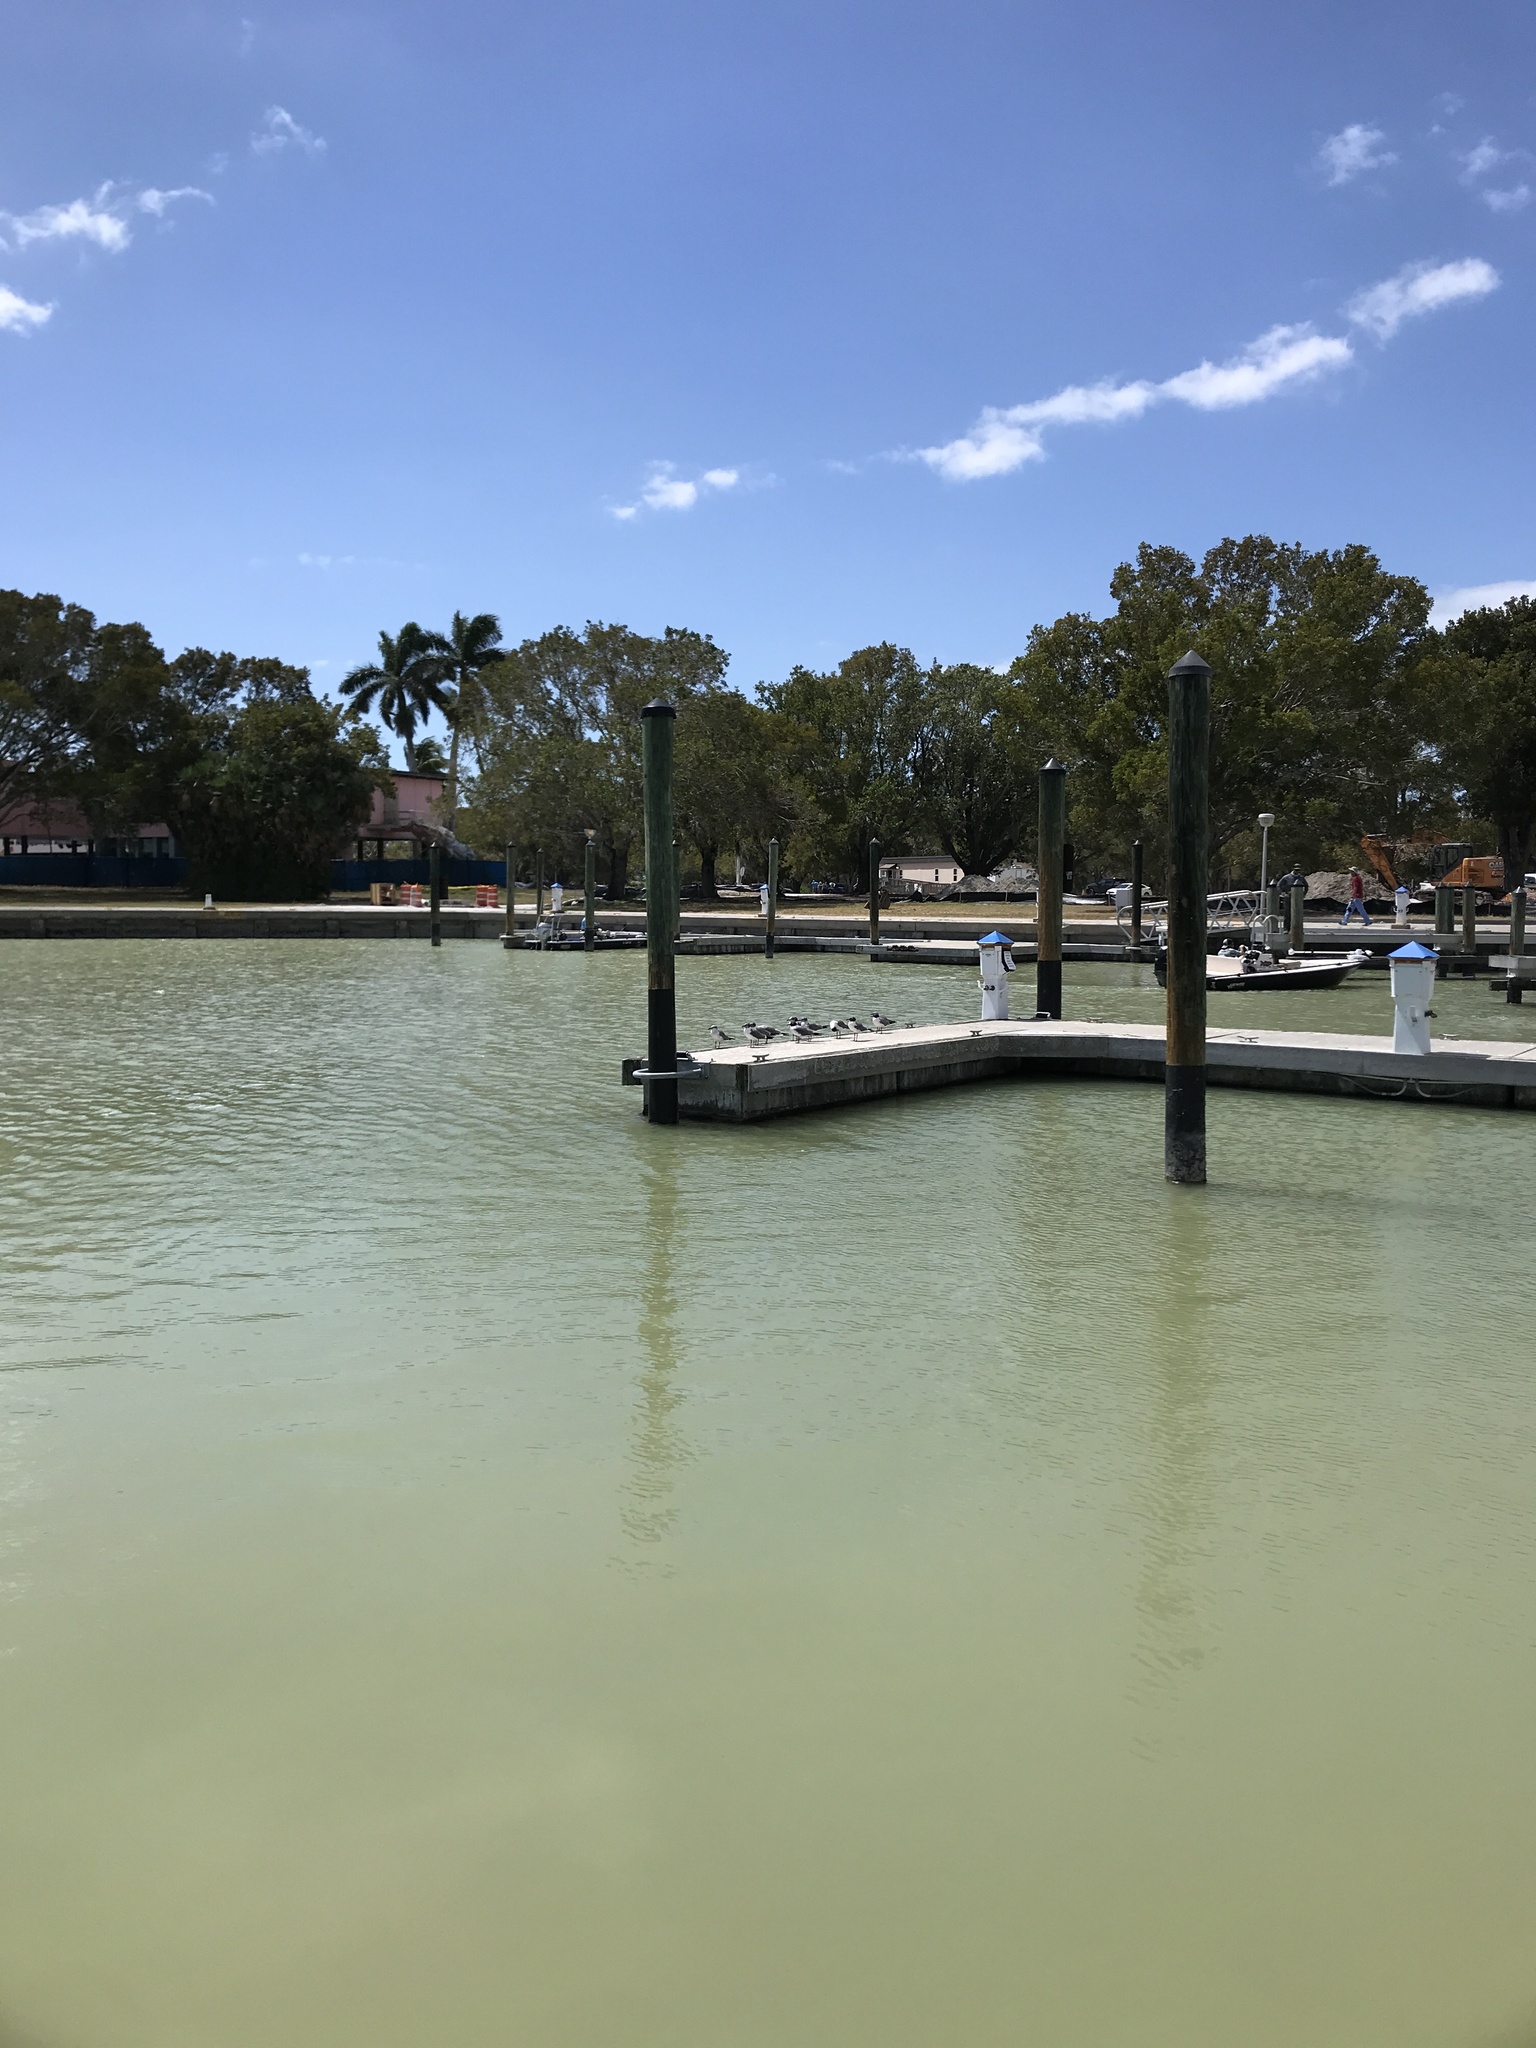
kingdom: Animalia
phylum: Chordata
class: Aves
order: Charadriiformes
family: Laridae
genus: Leucophaeus
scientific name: Leucophaeus atricilla
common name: Laughing gull
